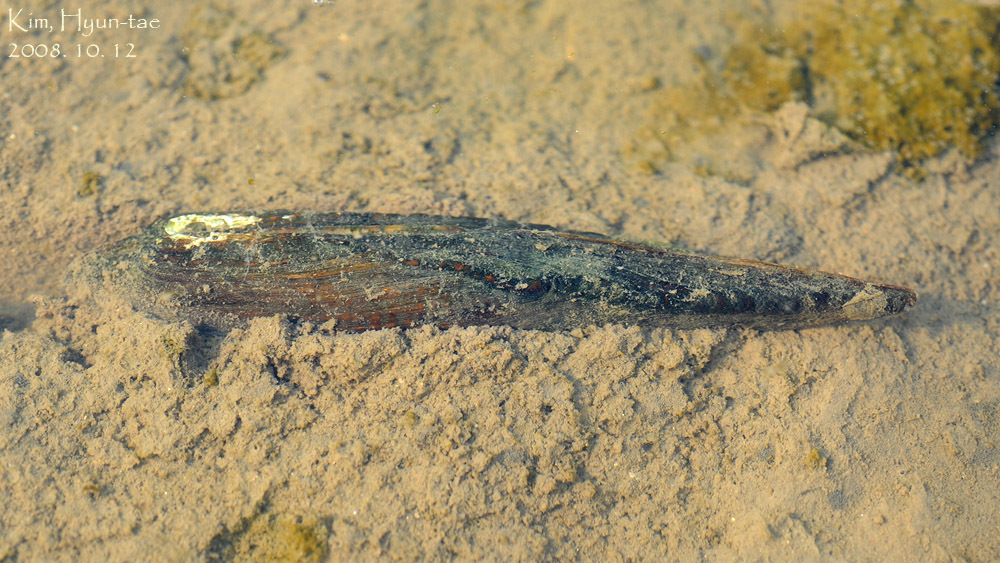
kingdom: Animalia
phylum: Mollusca
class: Bivalvia
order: Unionida
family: Unionidae
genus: Lanceolaria
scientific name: Lanceolaria acrorrhyncha
